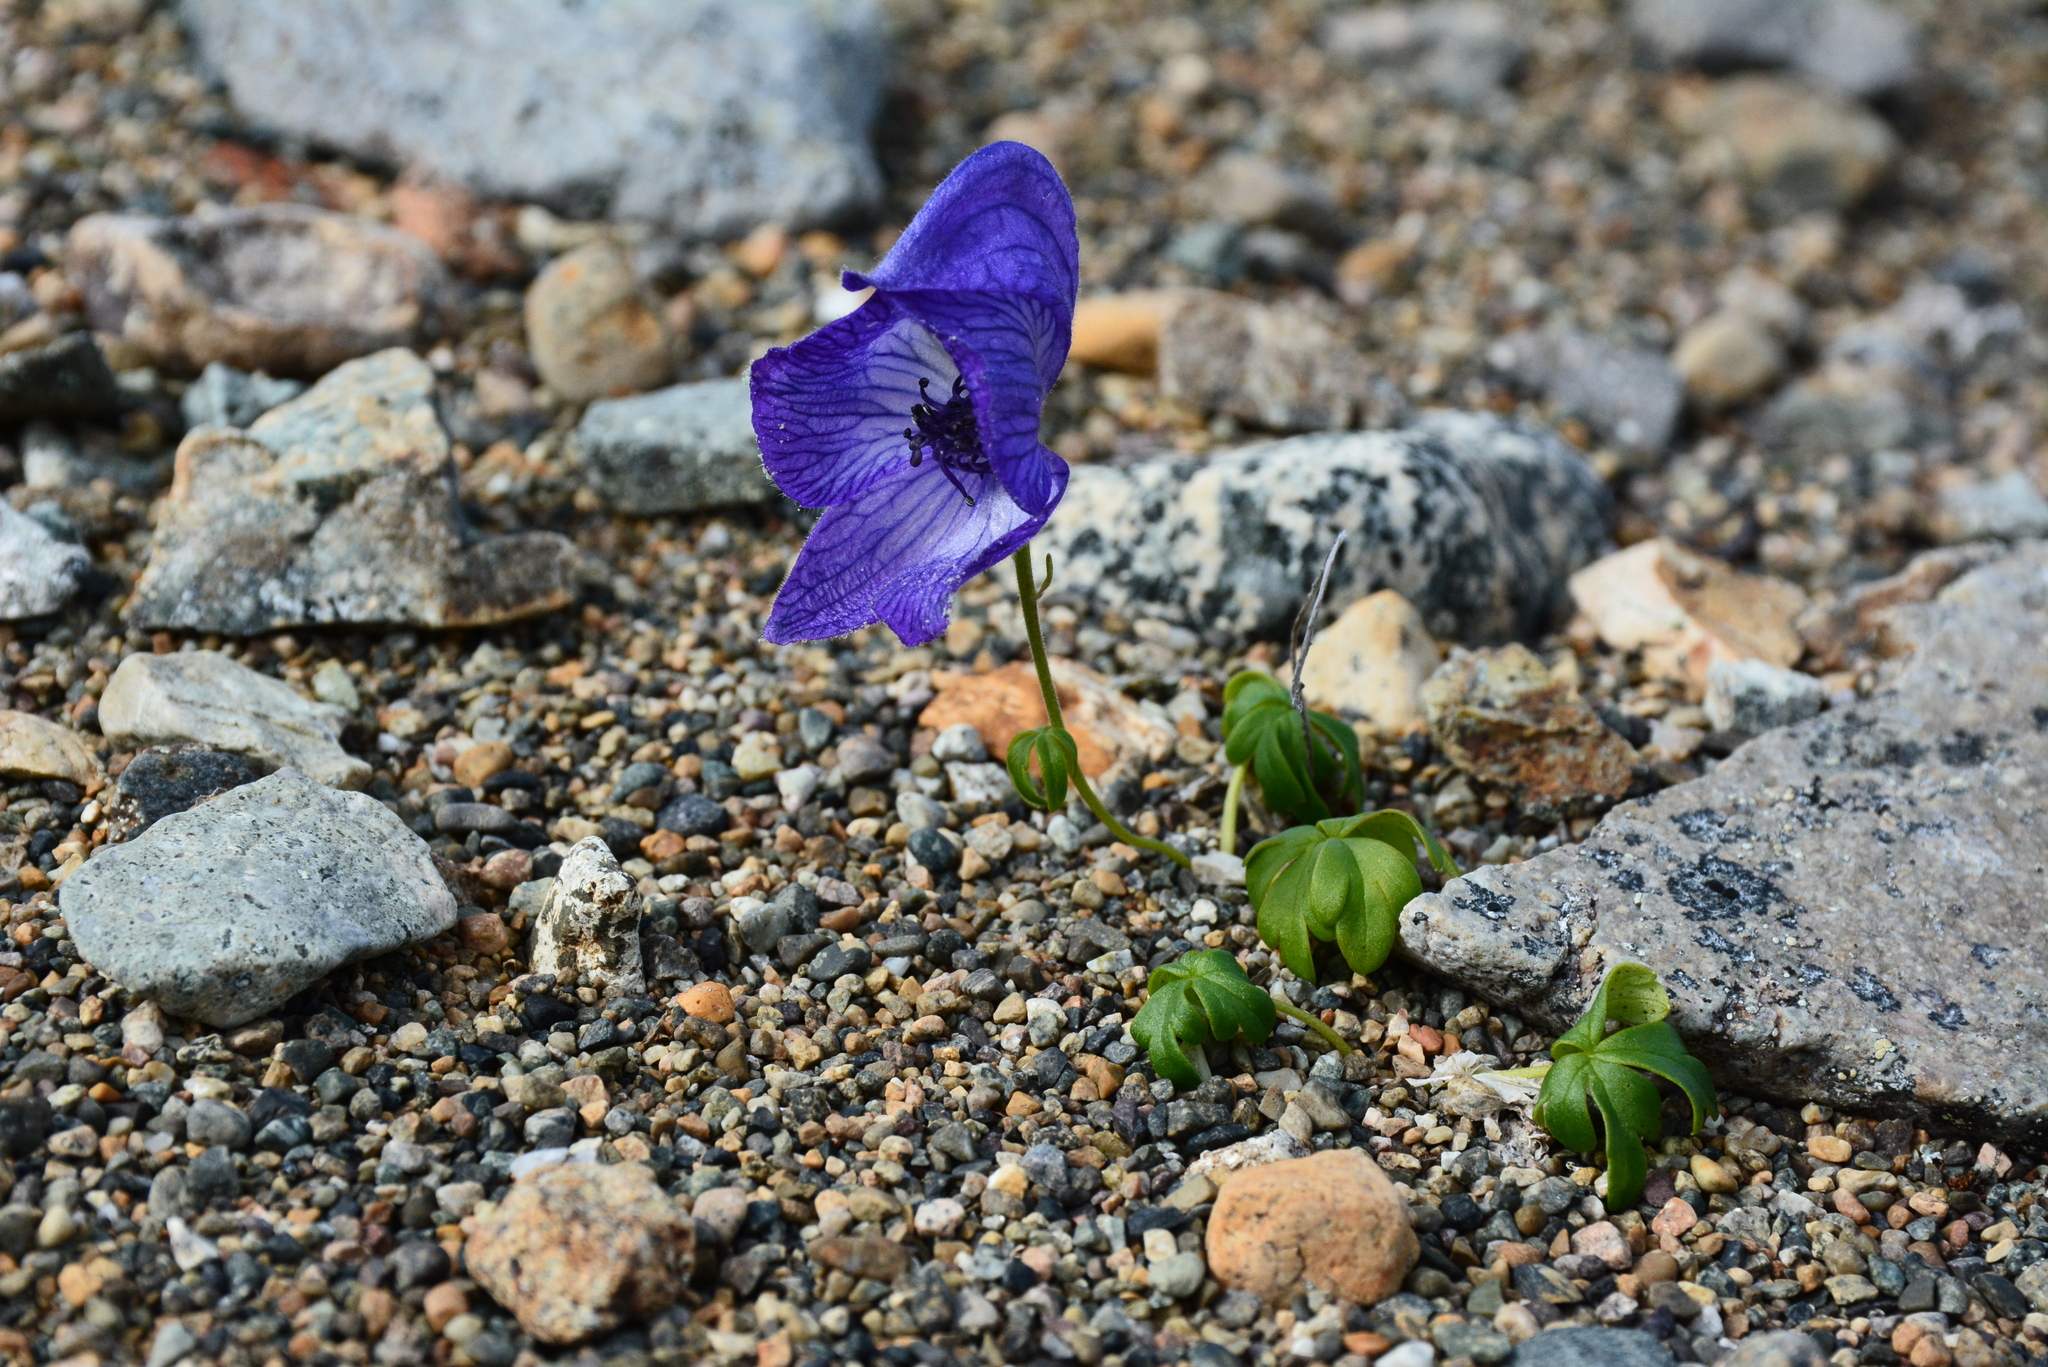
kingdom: Plantae
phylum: Tracheophyta
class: Magnoliopsida
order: Ranunculales
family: Ranunculaceae
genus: Aconitum
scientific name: Aconitum delphinifolium
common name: Larkspur-leaved monkshood
